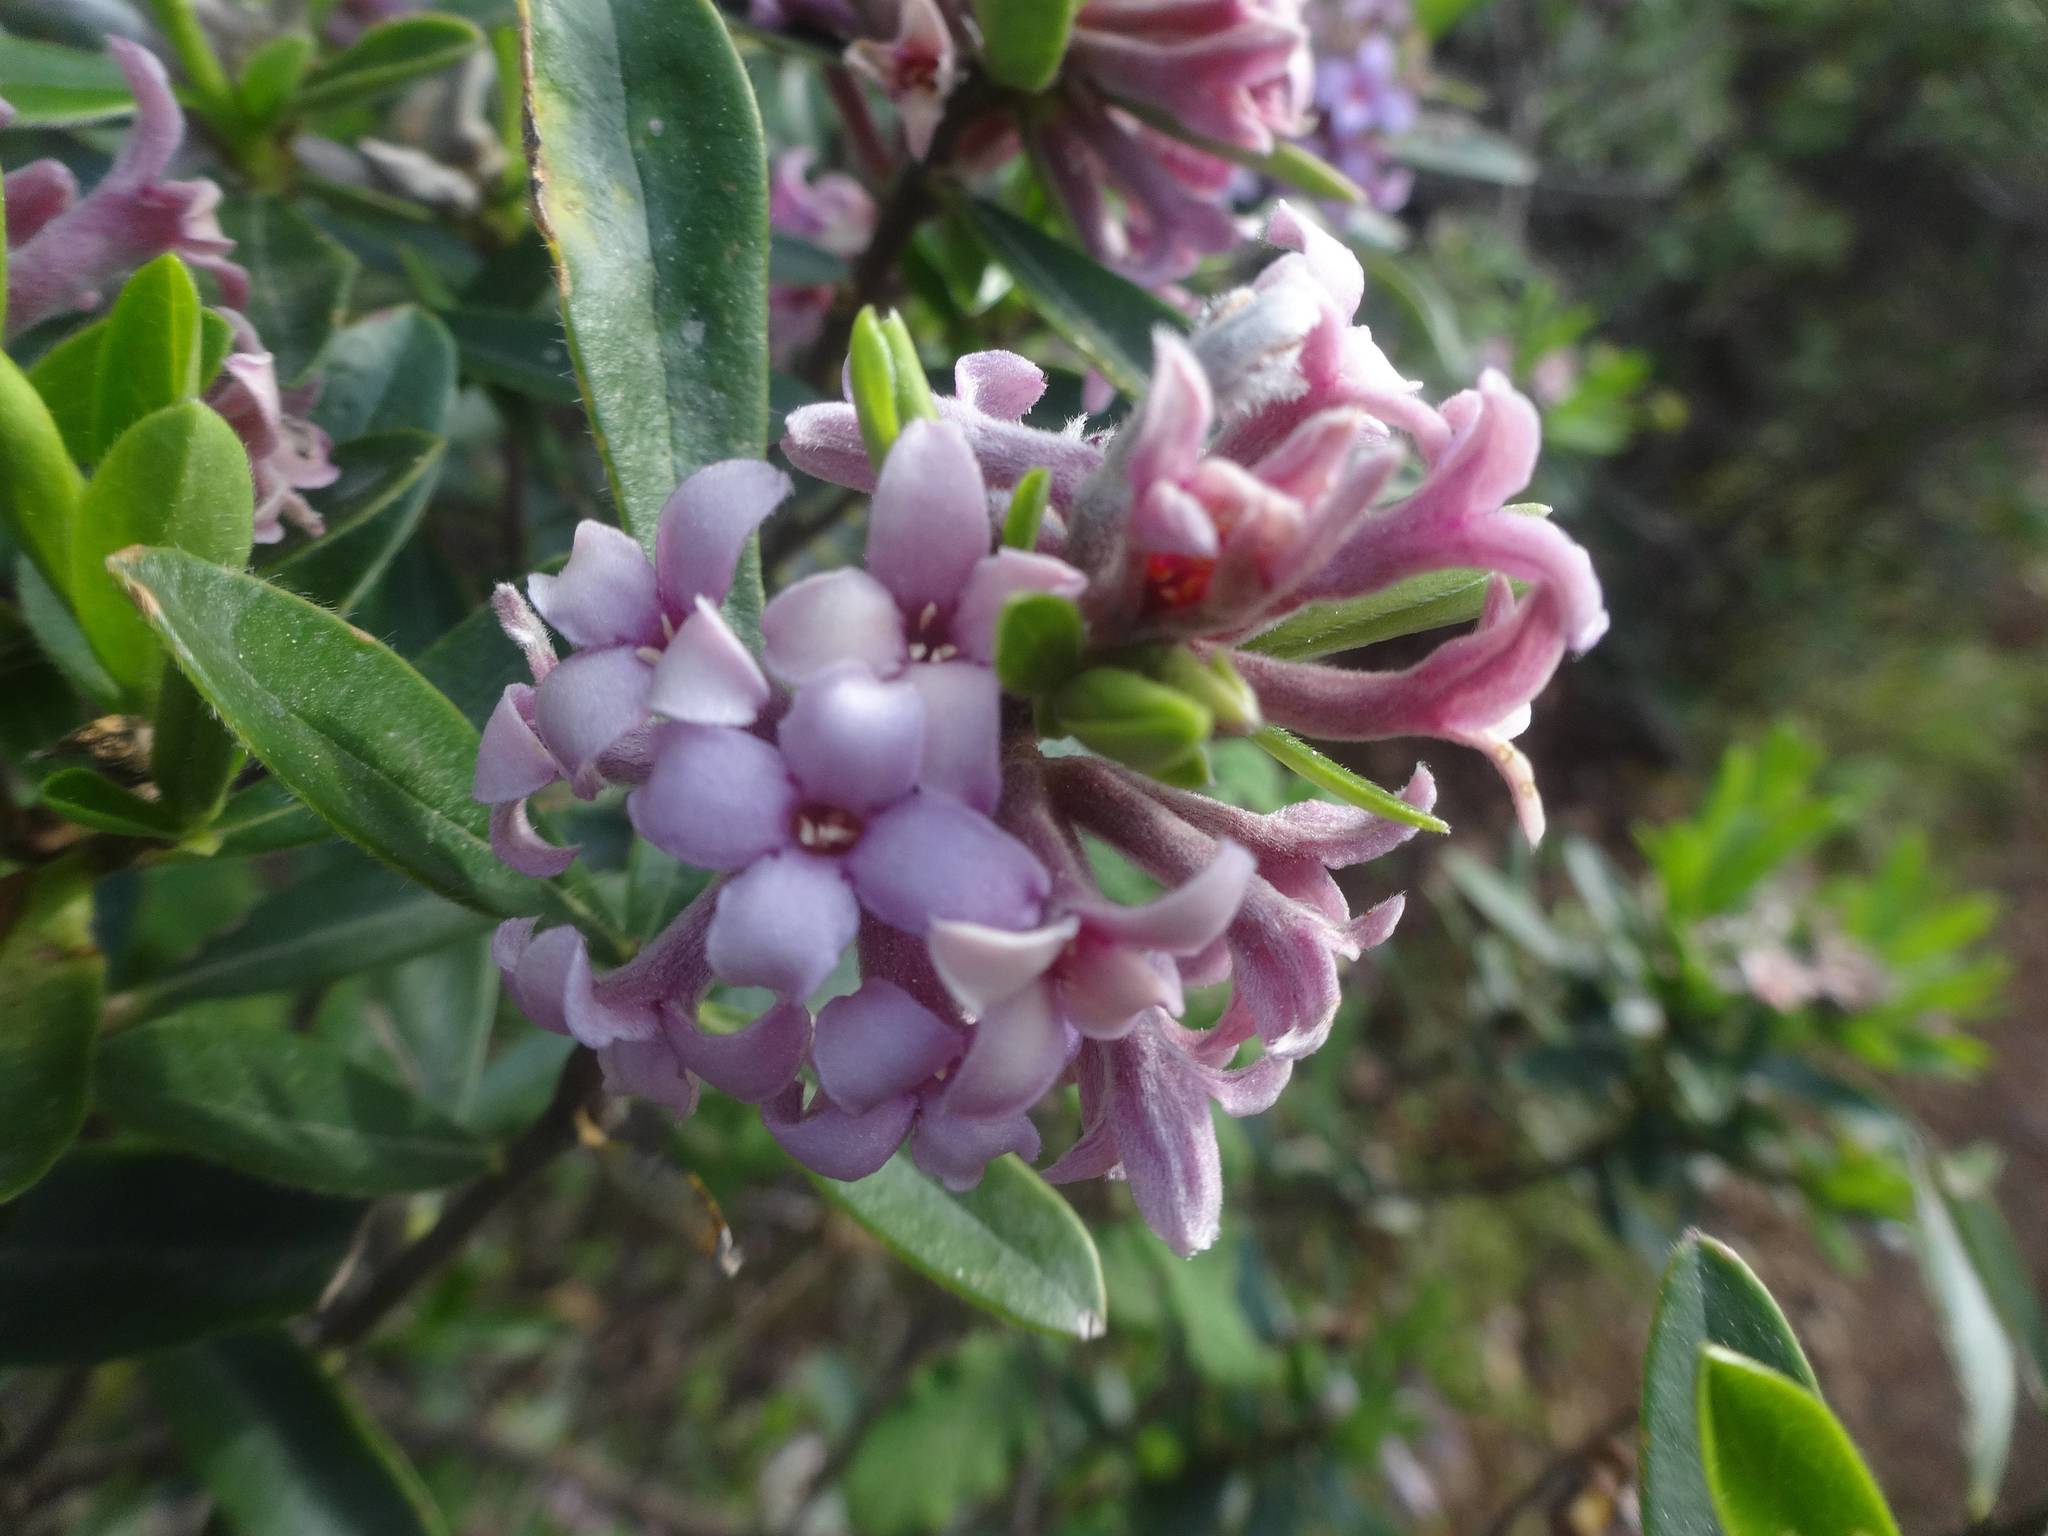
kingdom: Plantae
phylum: Tracheophyta
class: Magnoliopsida
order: Malvales
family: Thymelaeaceae
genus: Daphne
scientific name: Daphne sericea
